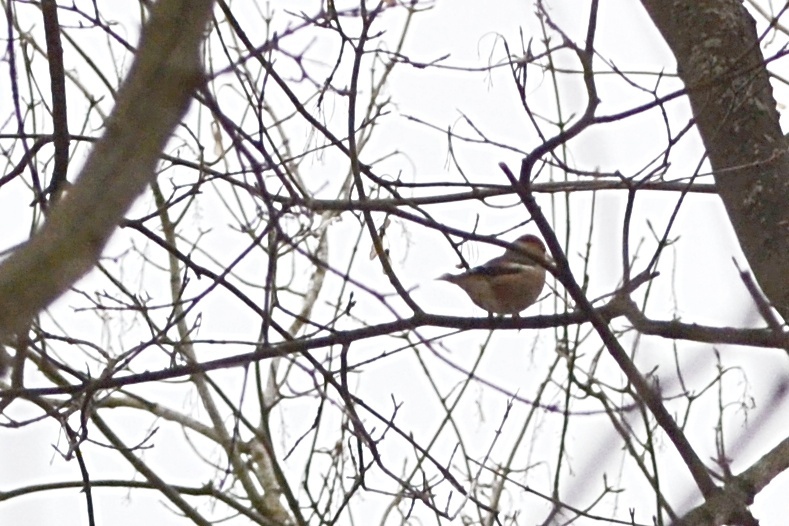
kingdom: Animalia
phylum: Chordata
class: Aves
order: Passeriformes
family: Fringillidae
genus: Coccothraustes
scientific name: Coccothraustes coccothraustes
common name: Hawfinch
